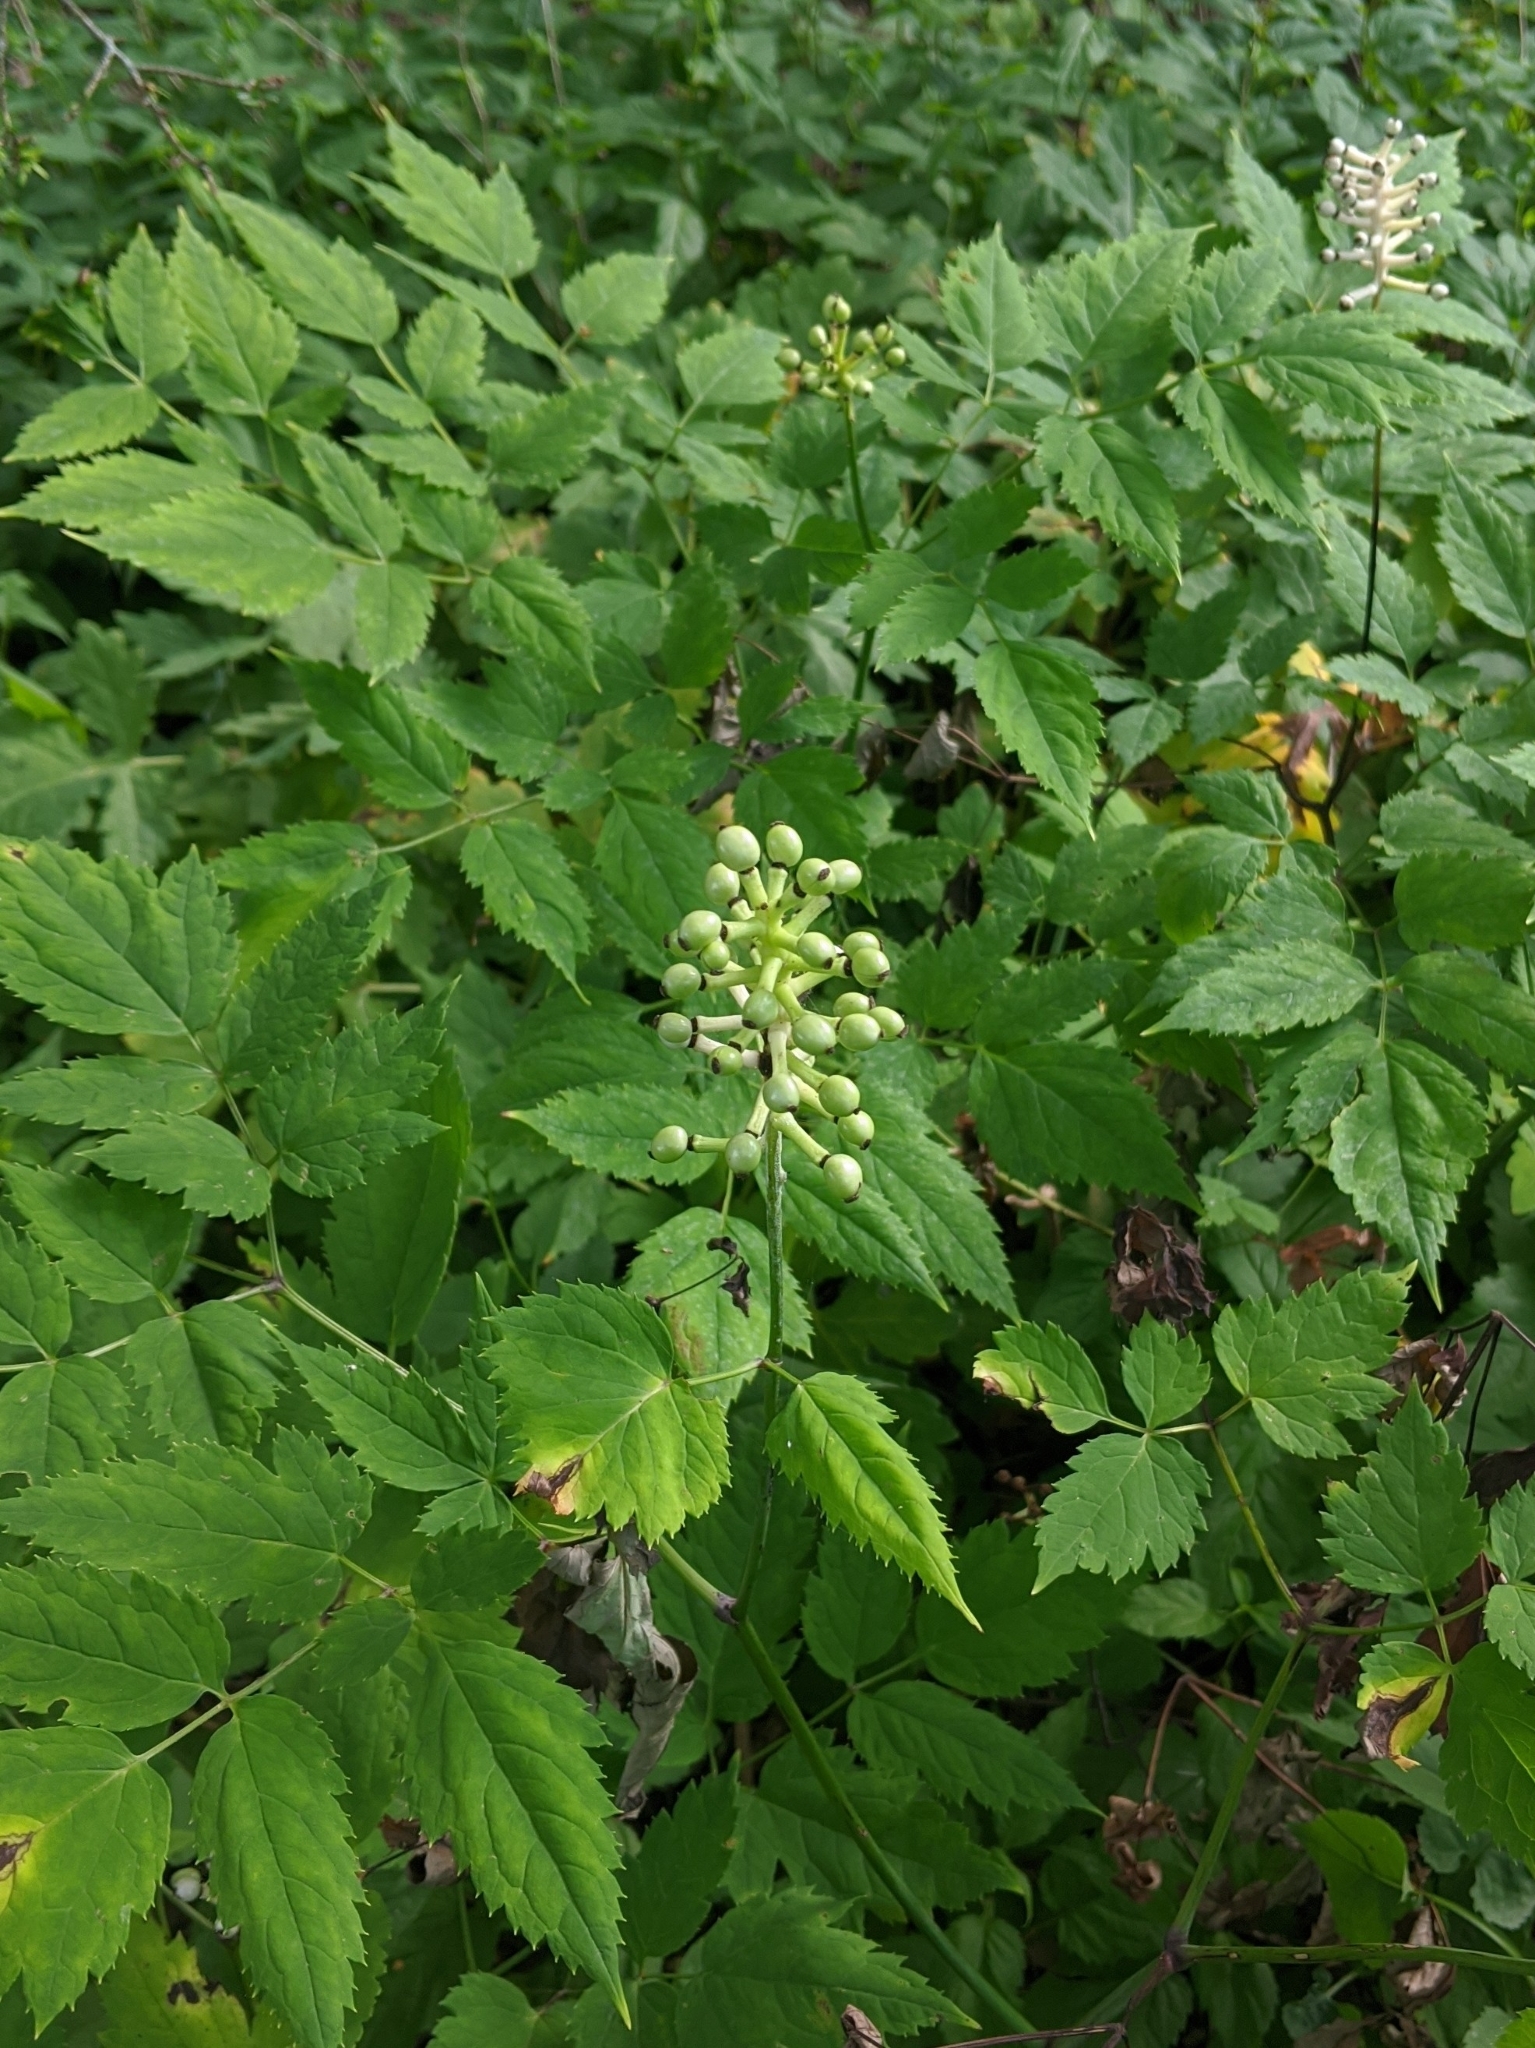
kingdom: Plantae
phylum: Tracheophyta
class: Magnoliopsida
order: Ranunculales
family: Ranunculaceae
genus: Actaea
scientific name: Actaea pachypoda
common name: Doll's-eyes
